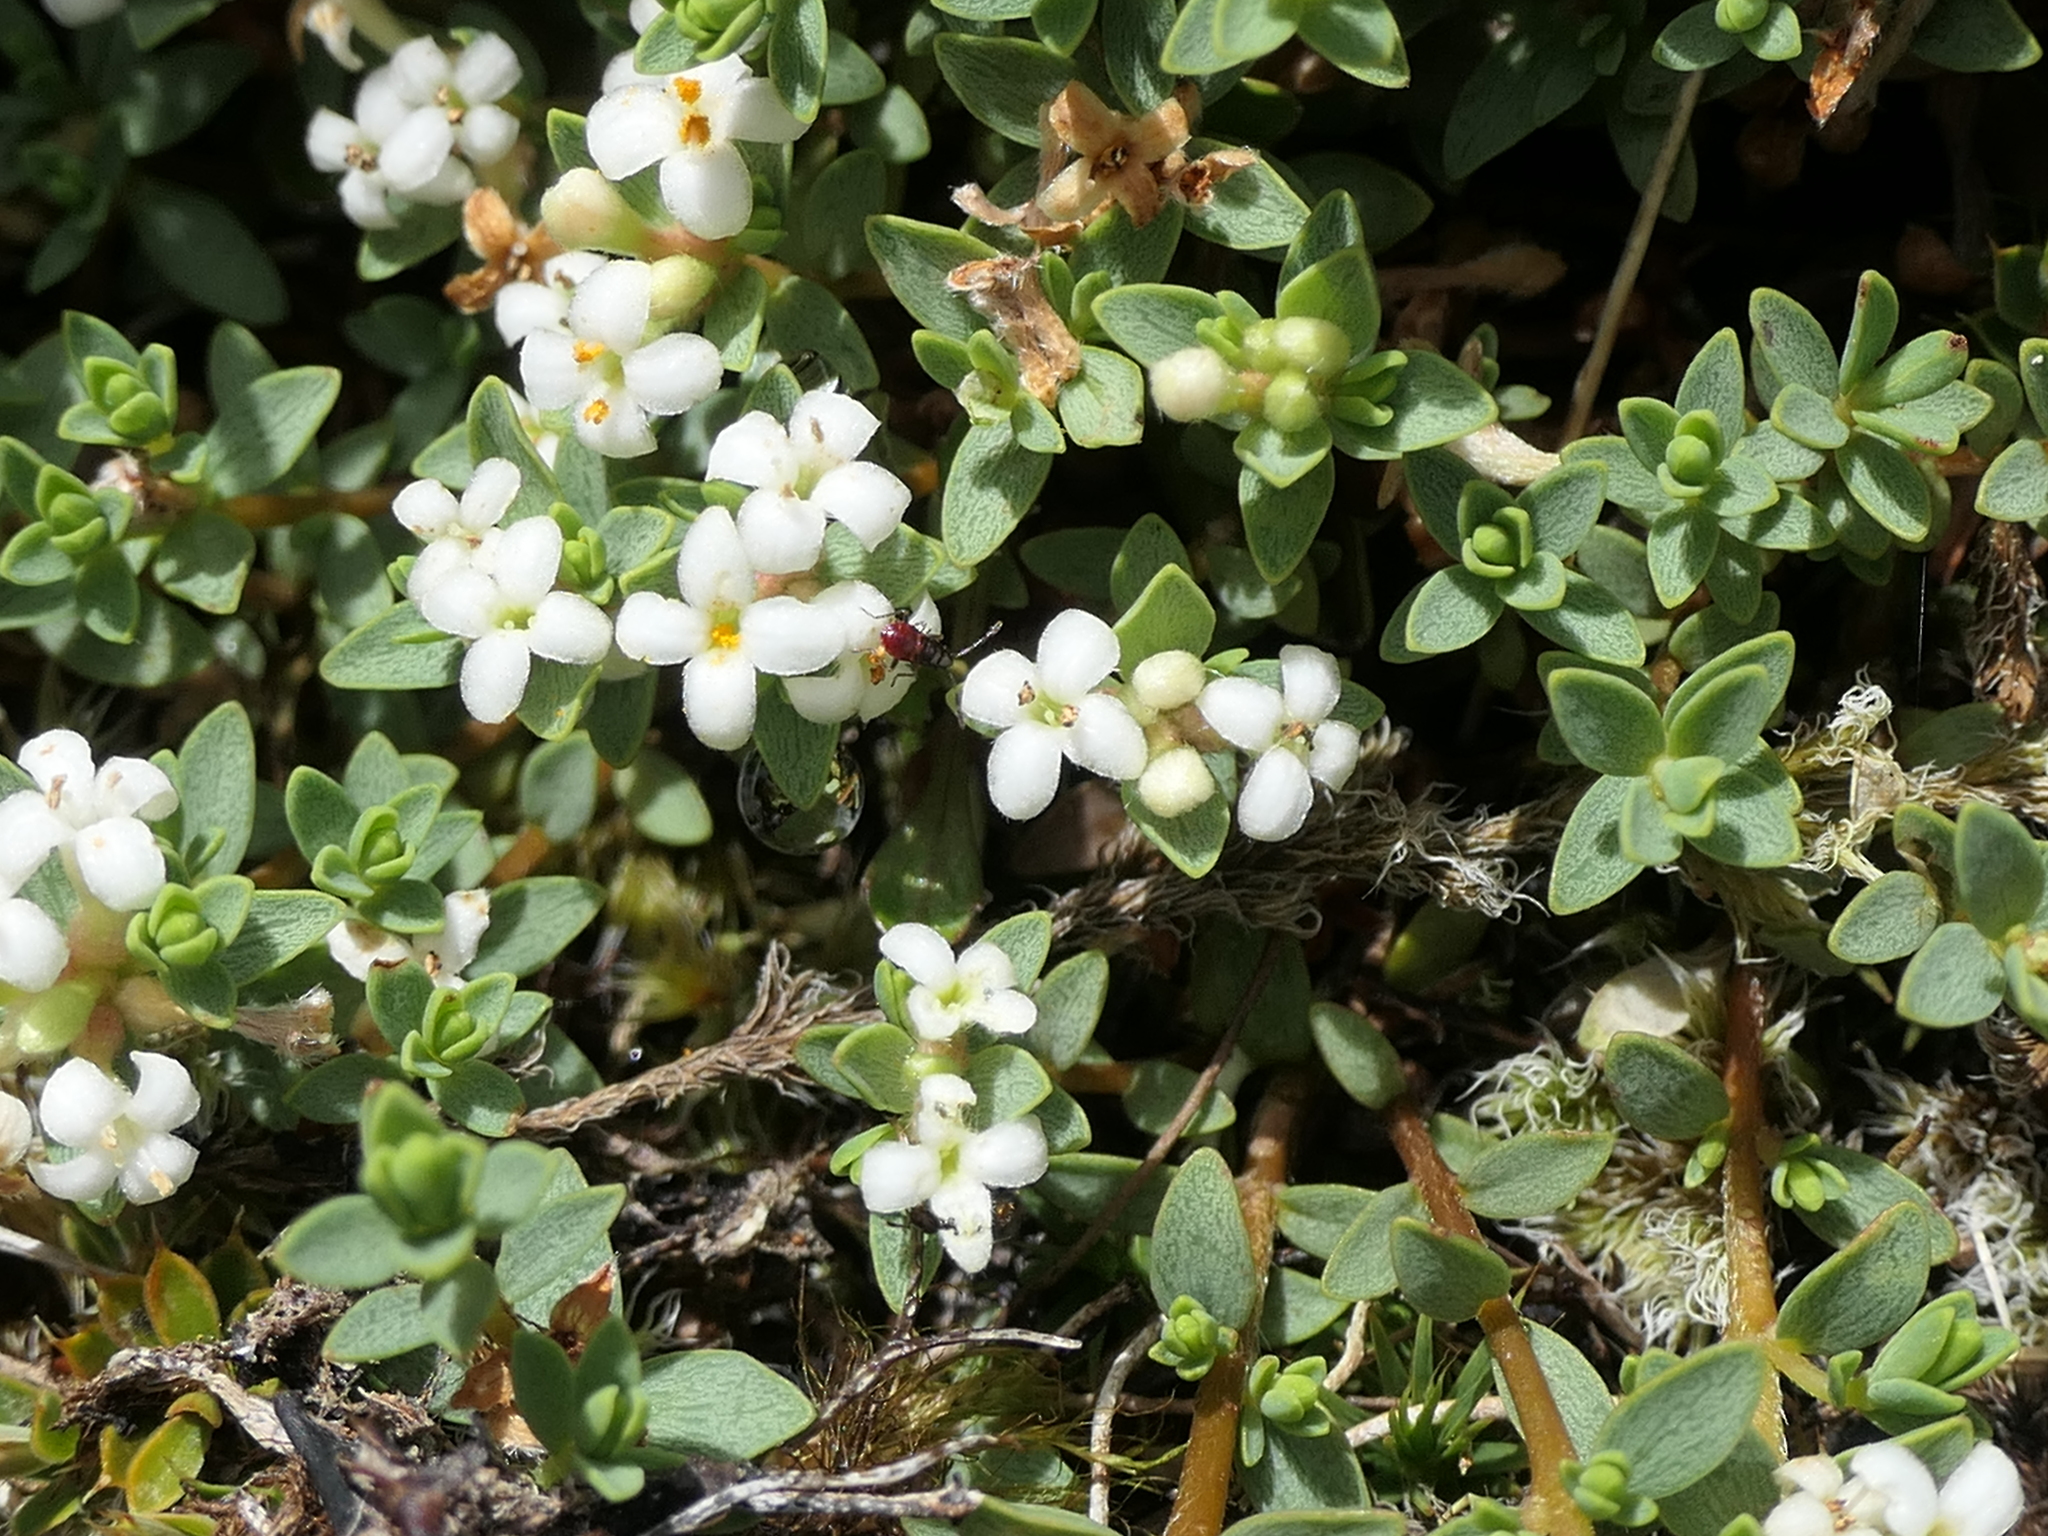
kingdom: Plantae
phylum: Tracheophyta
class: Magnoliopsida
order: Malvales
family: Thymelaeaceae
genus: Pimelea
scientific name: Pimelea prostrata
